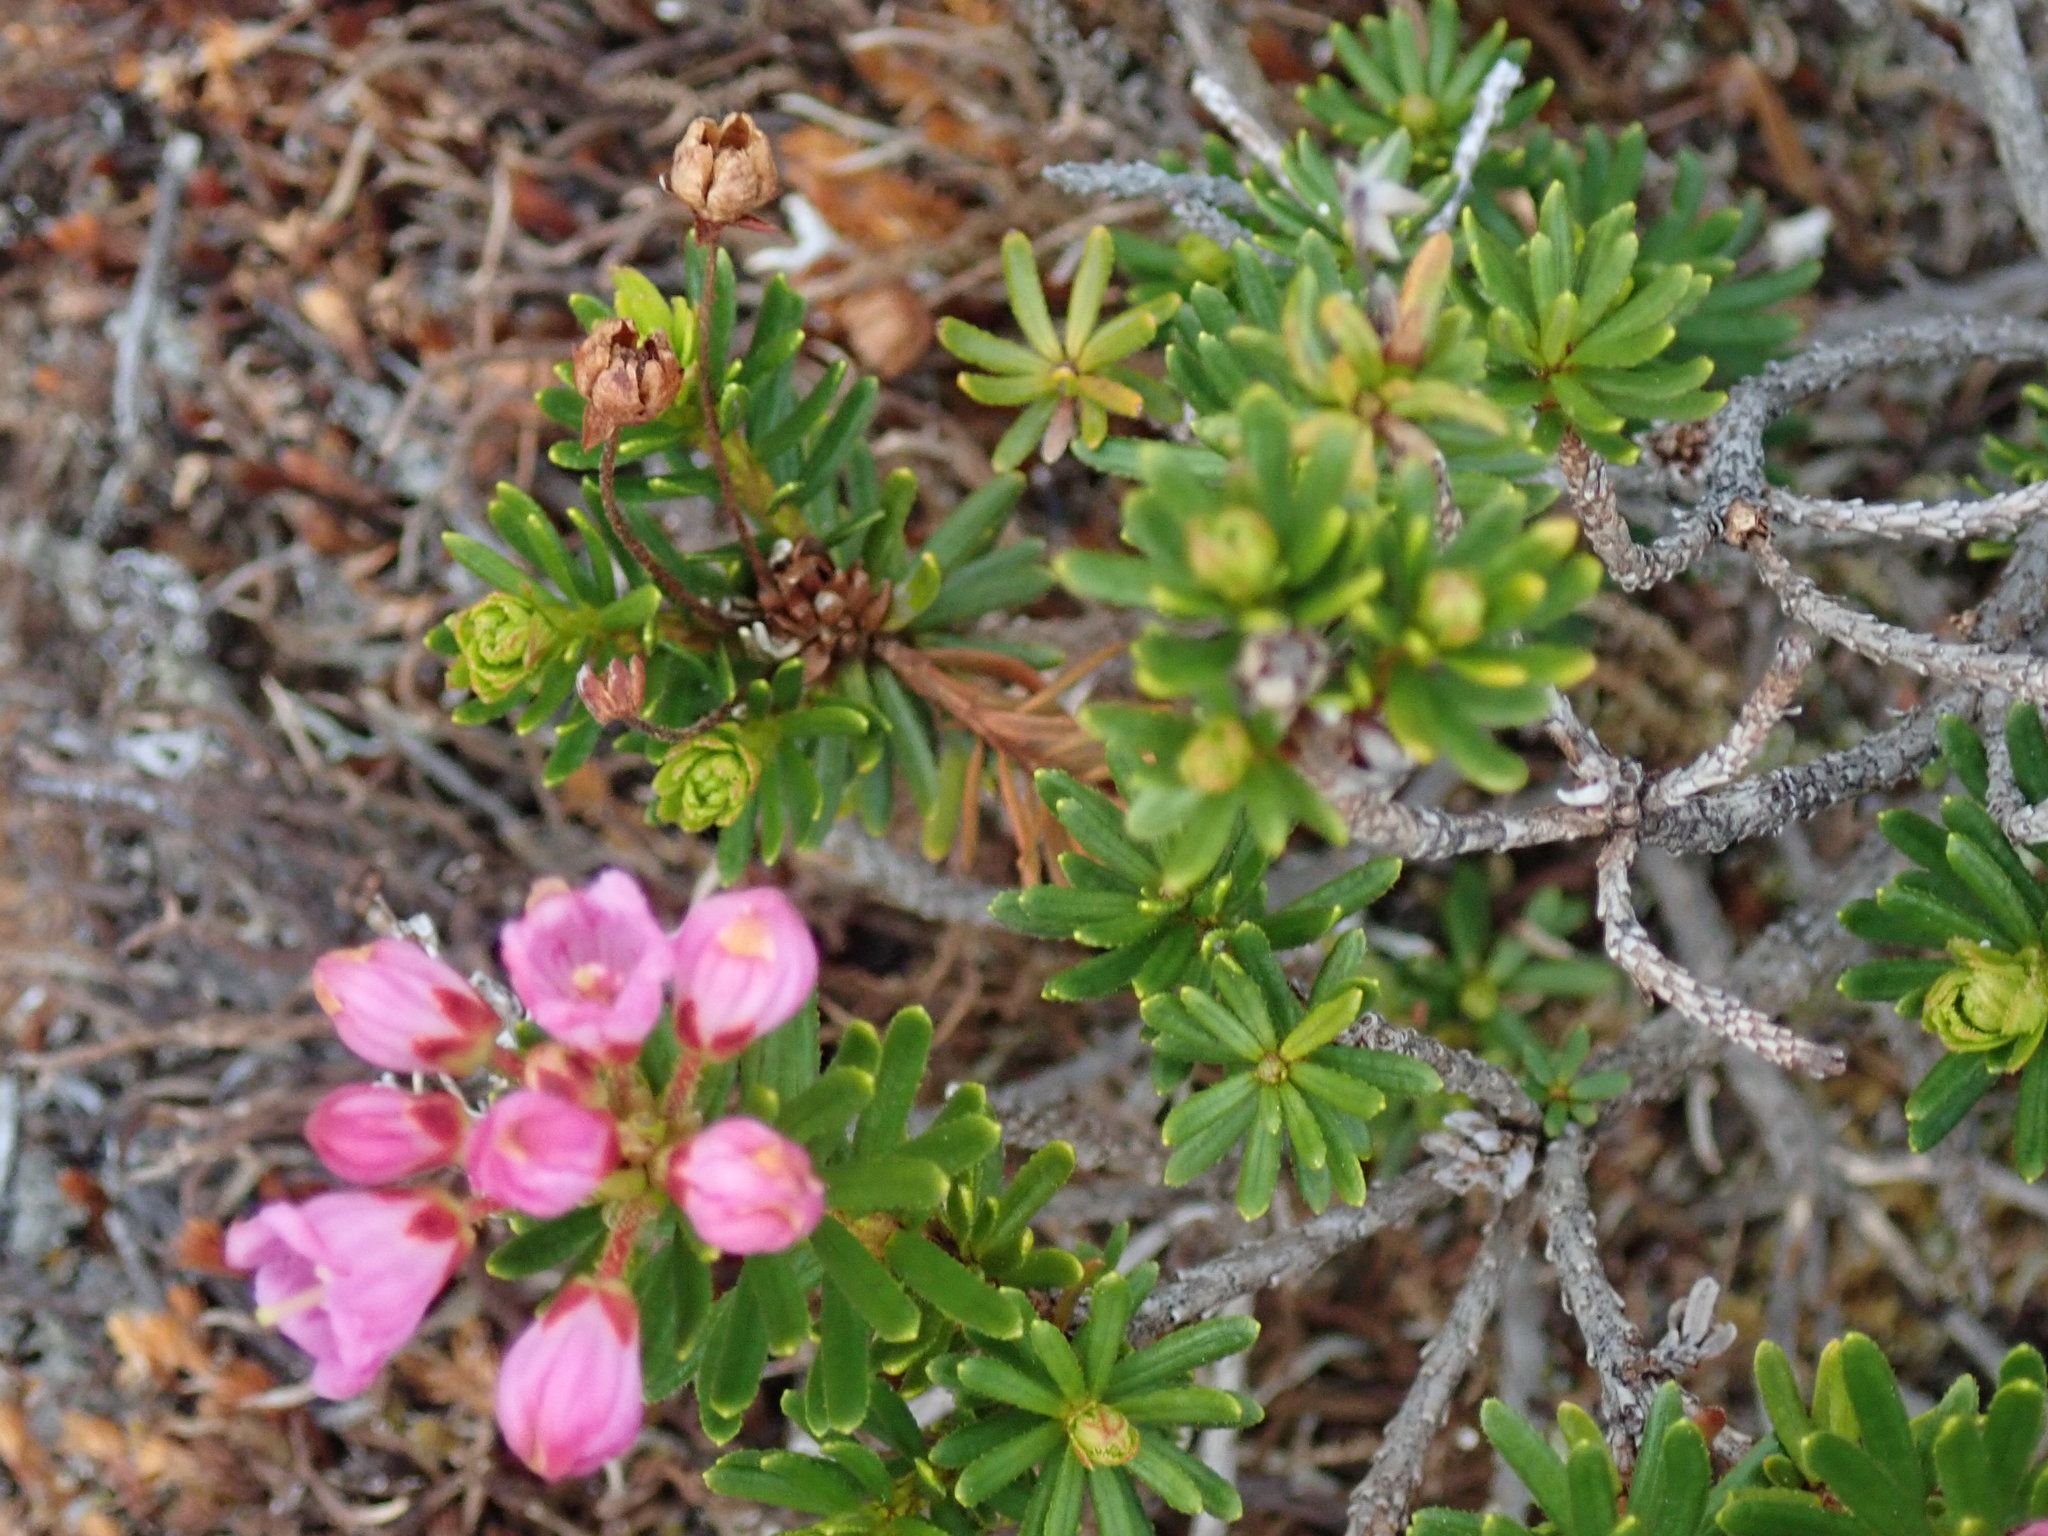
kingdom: Plantae
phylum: Tracheophyta
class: Magnoliopsida
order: Ericales
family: Ericaceae
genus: Phyllodoce
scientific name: Phyllodoce empetriformis
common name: Pink mountain heather
